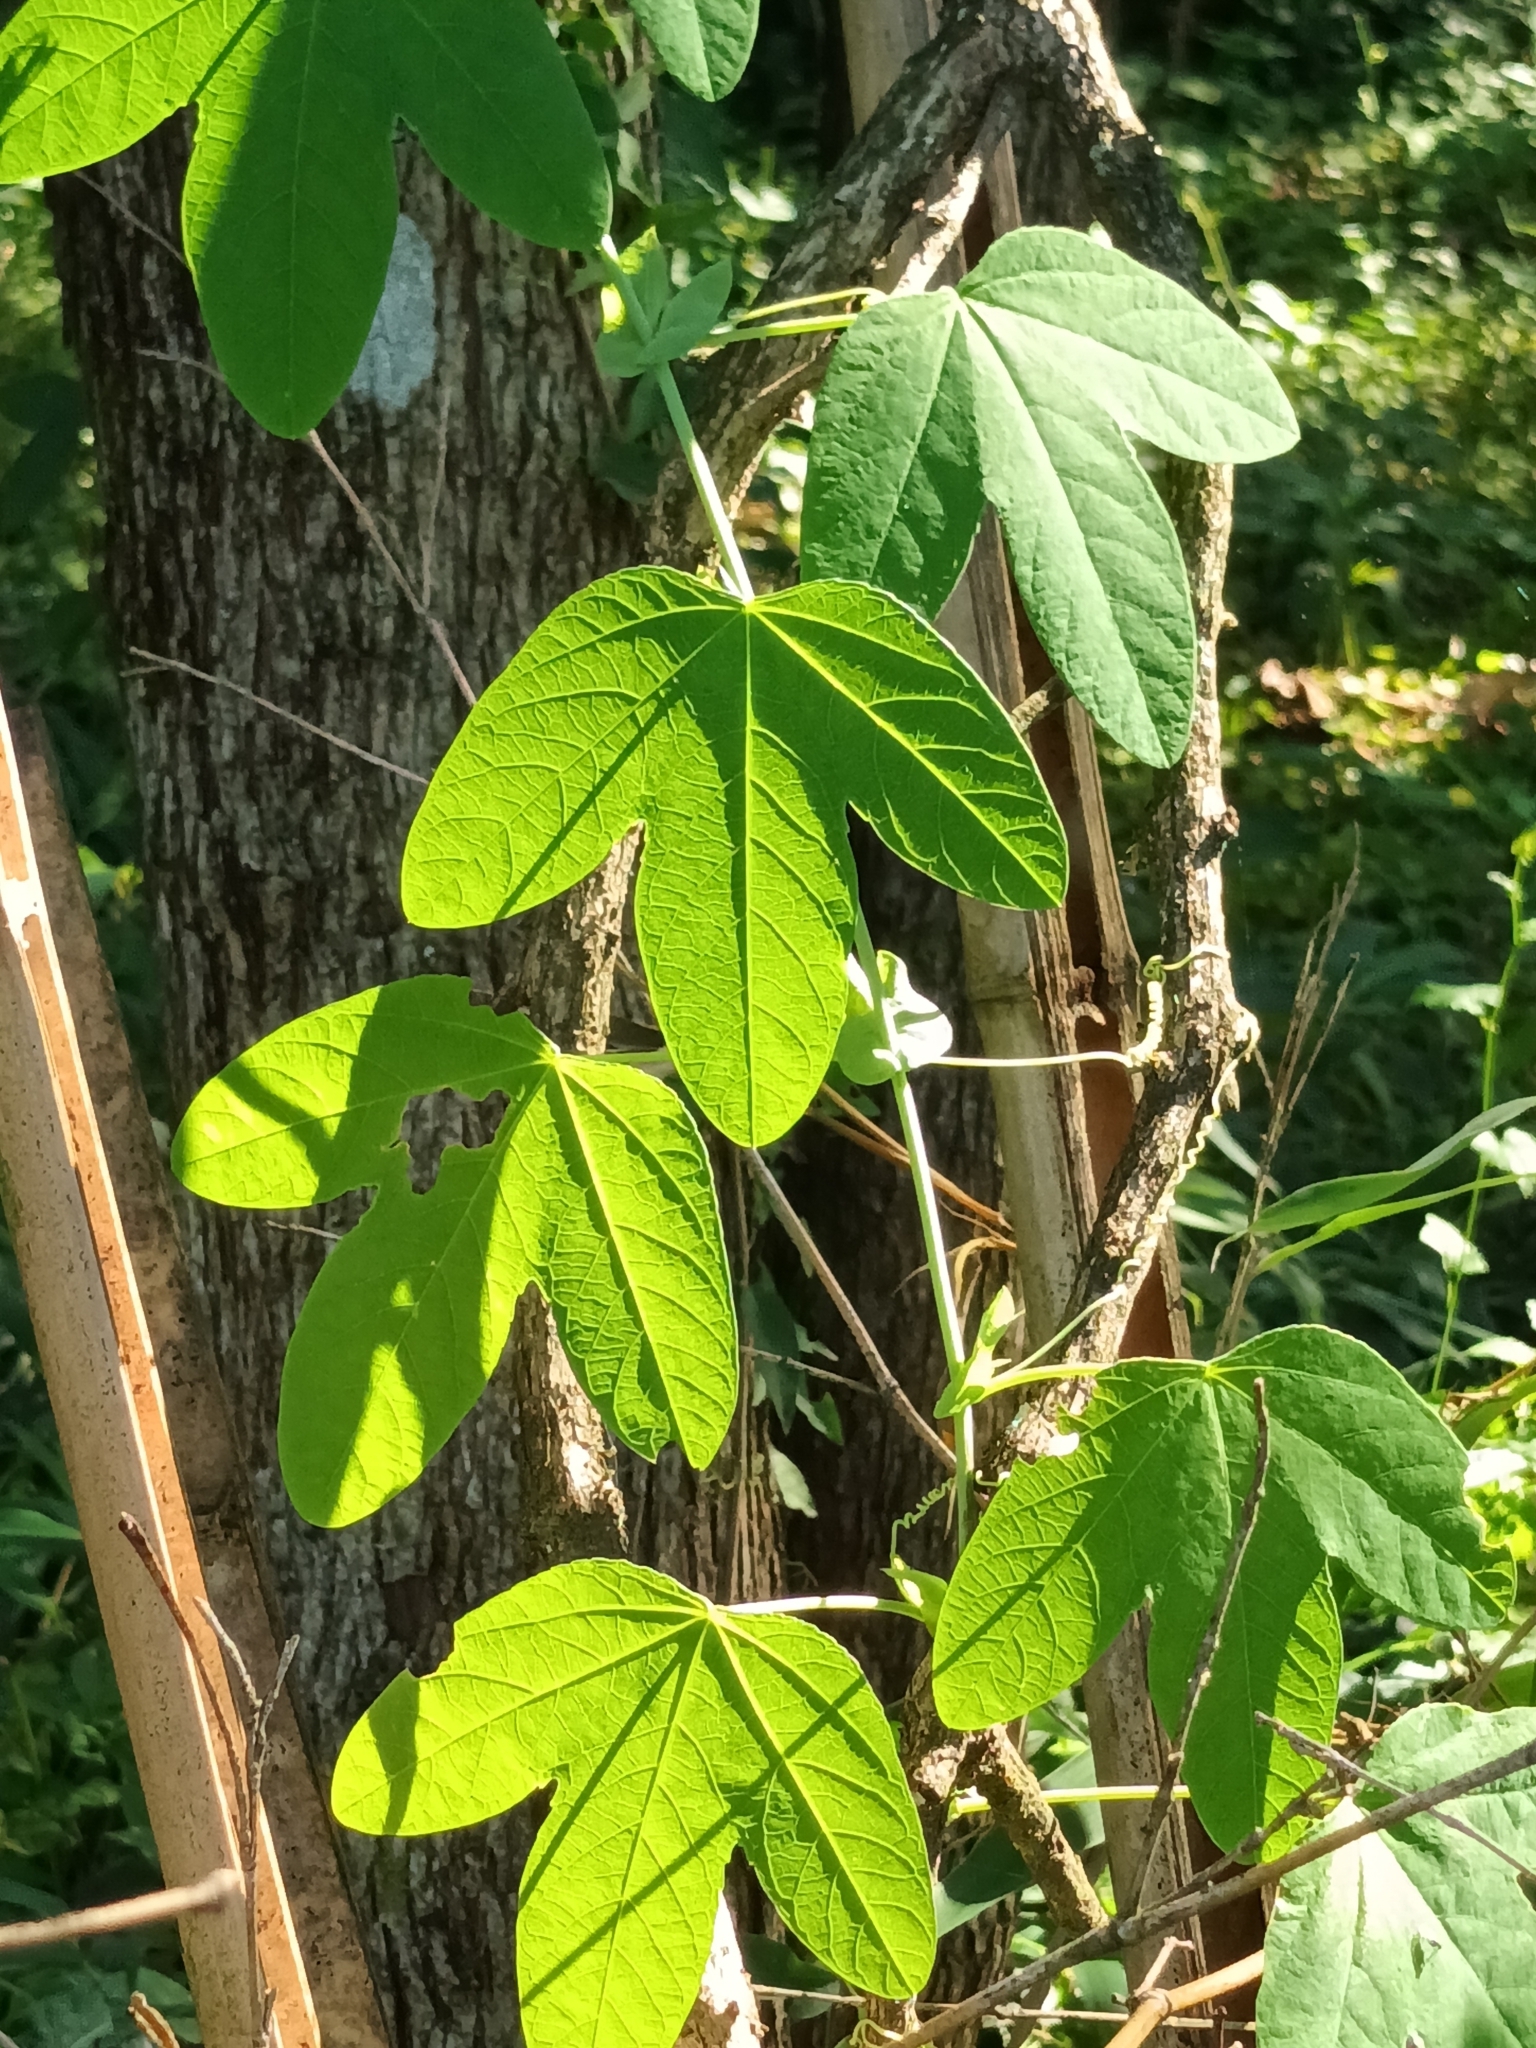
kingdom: Plantae
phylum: Tracheophyta
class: Magnoliopsida
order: Malpighiales
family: Passifloraceae
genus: Passiflora
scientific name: Passiflora subpeltata
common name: White passionflower
